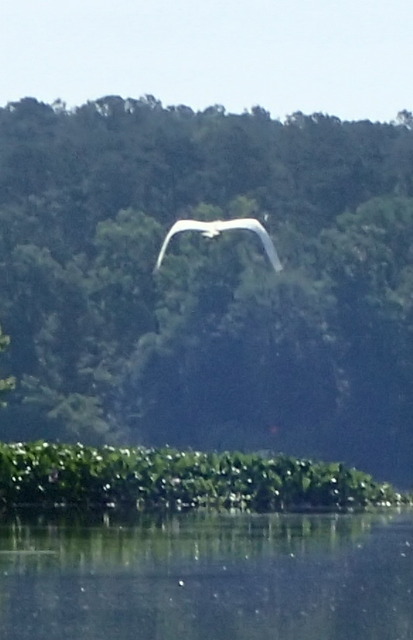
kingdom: Animalia
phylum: Chordata
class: Aves
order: Pelecaniformes
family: Ardeidae
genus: Ardea
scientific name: Ardea alba
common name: Great egret
